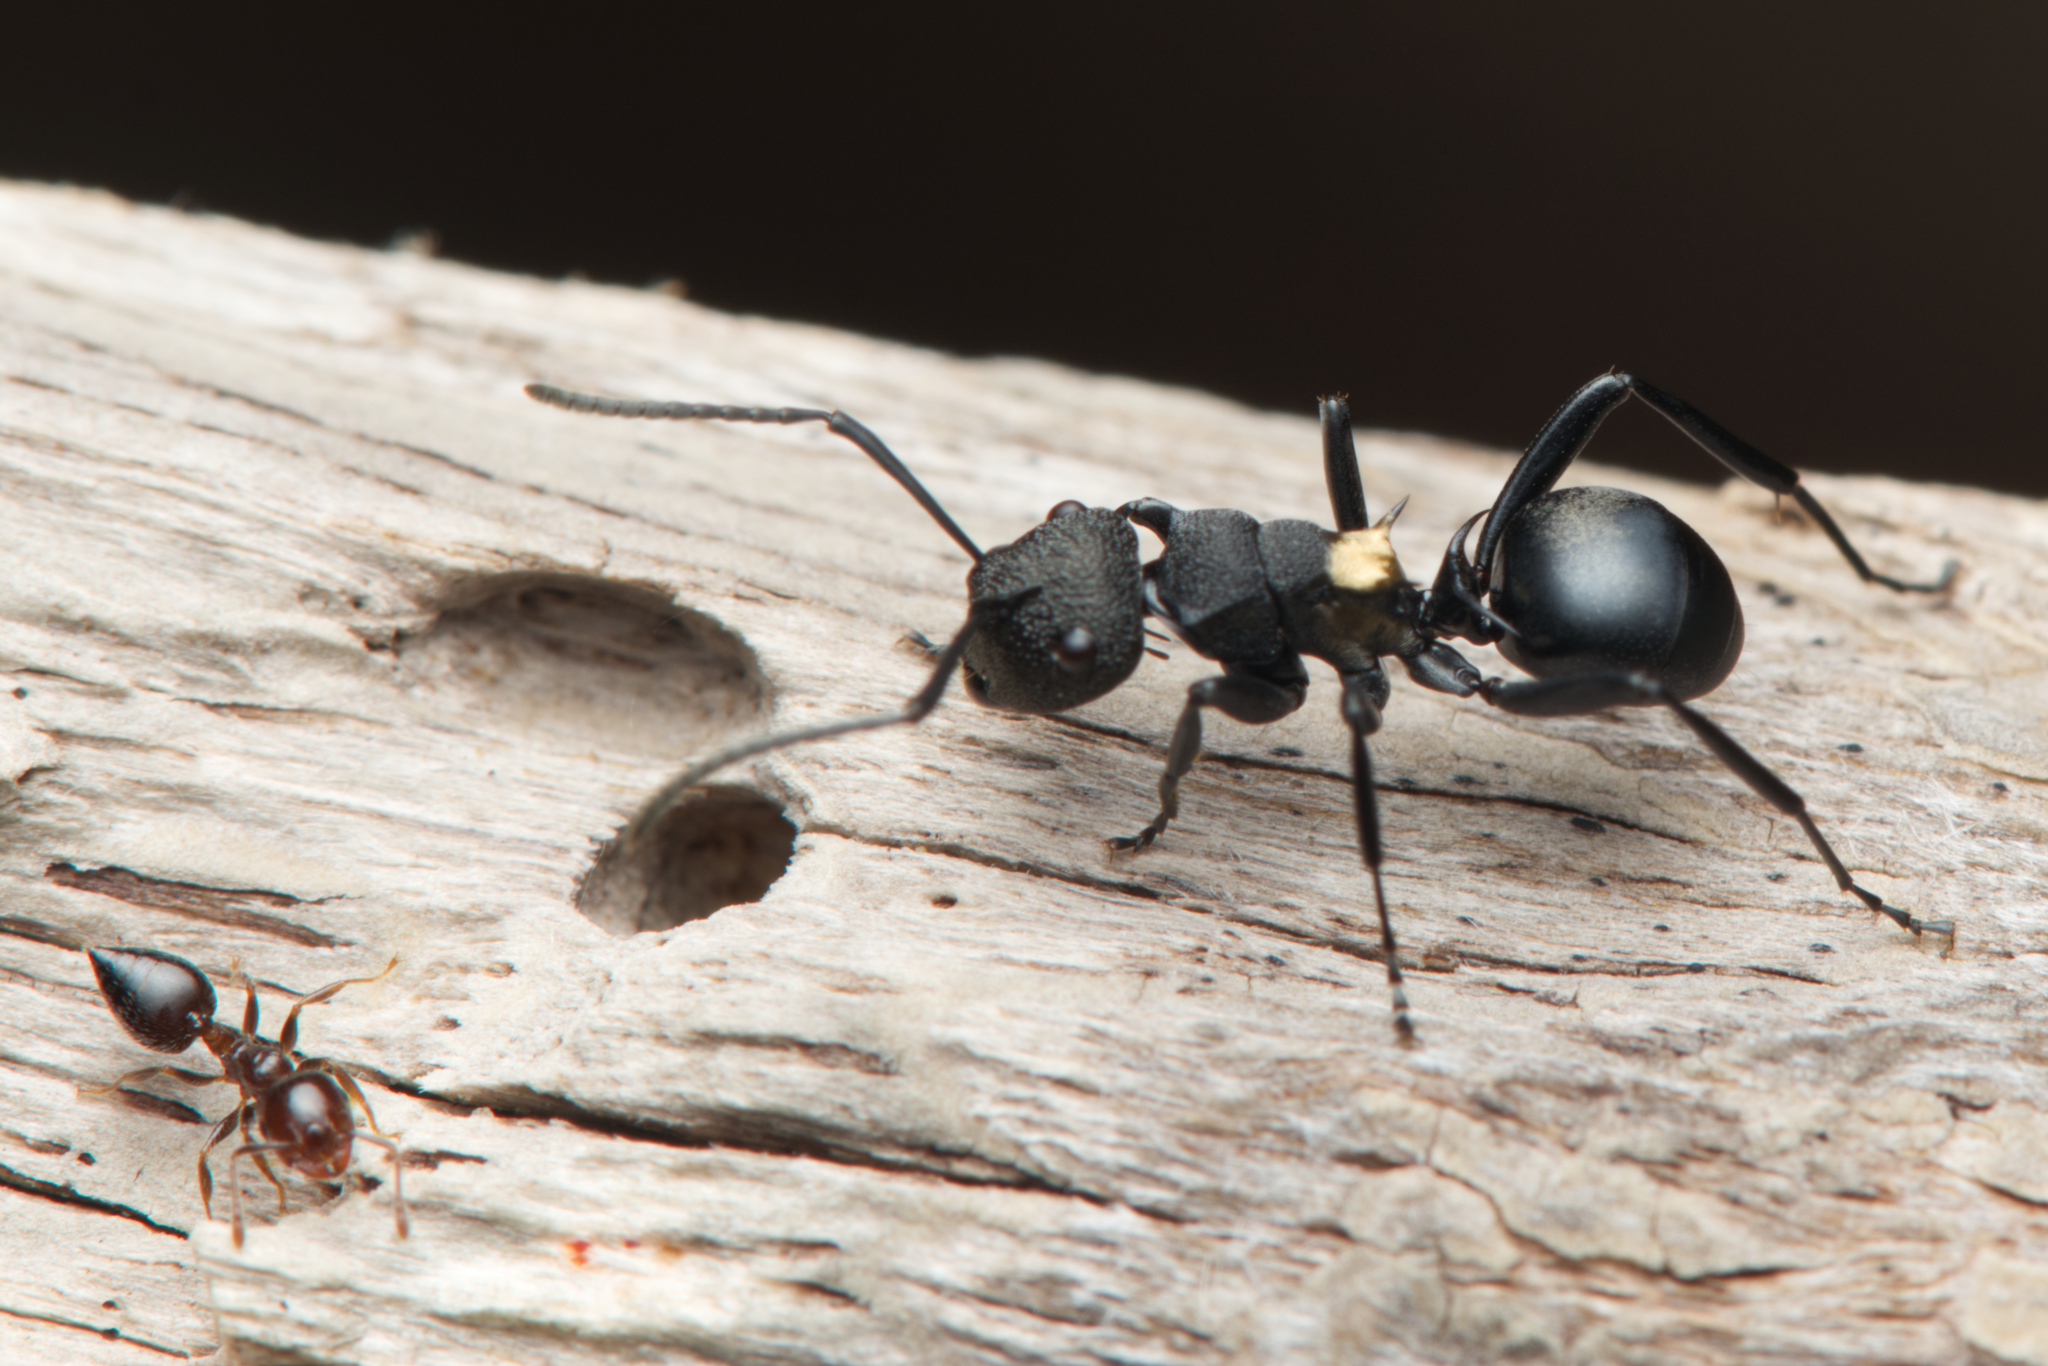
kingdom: Animalia
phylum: Arthropoda
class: Insecta
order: Hymenoptera
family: Formicidae
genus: Polyrhachis
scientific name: Polyrhachis machaon
